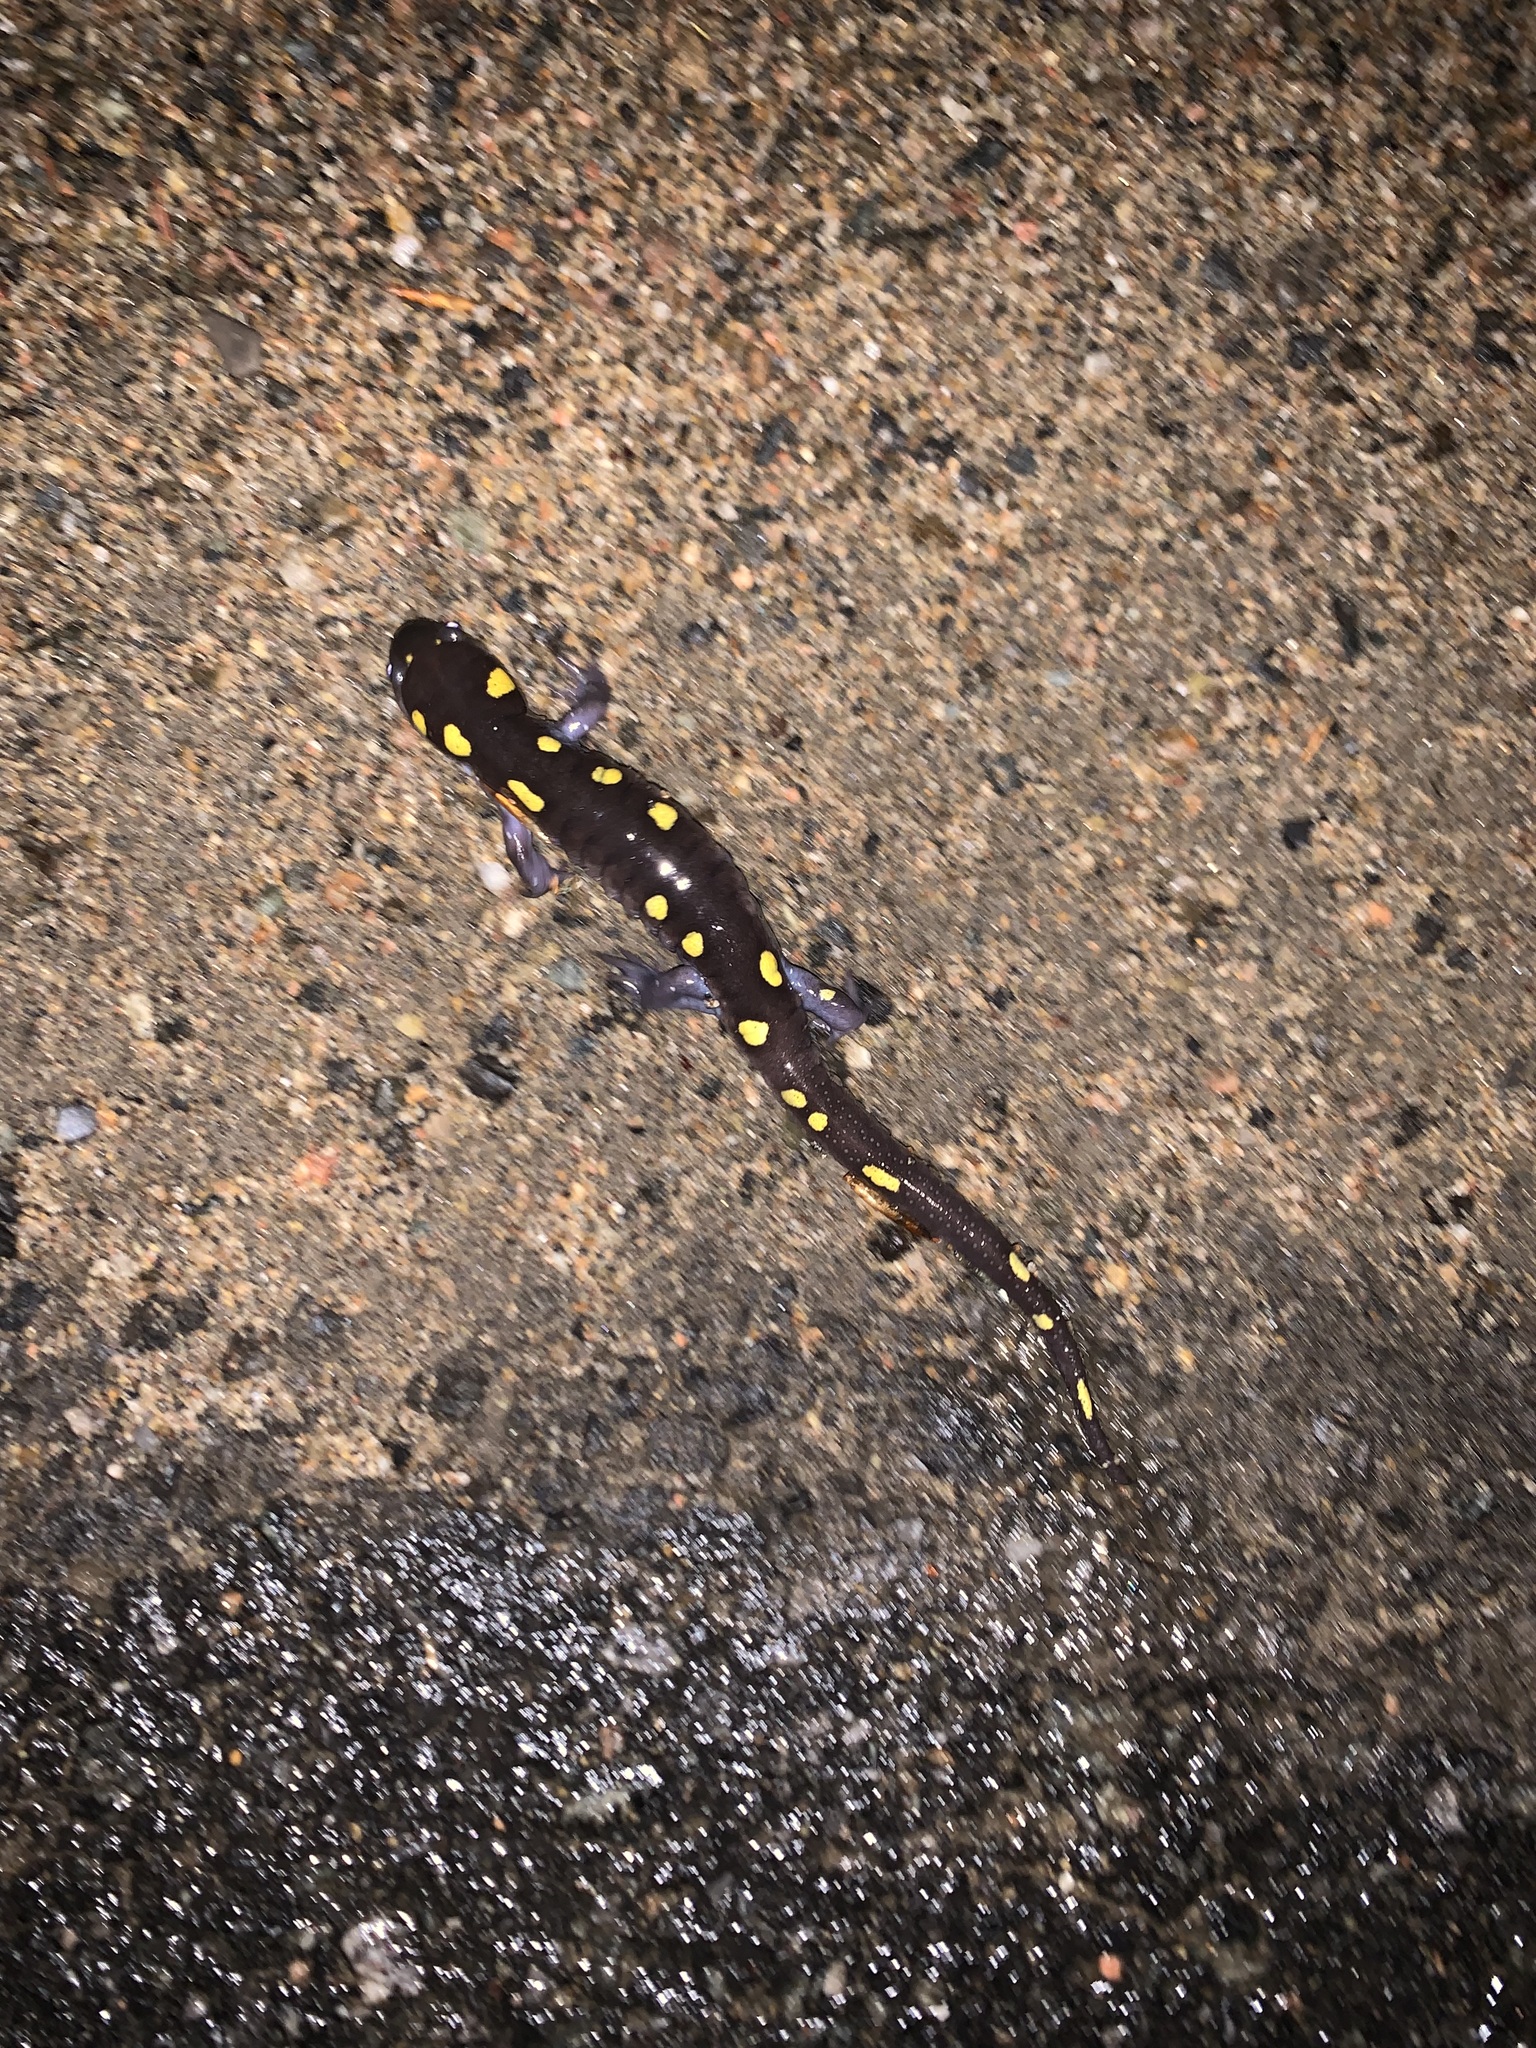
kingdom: Animalia
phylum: Chordata
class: Amphibia
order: Caudata
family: Ambystomatidae
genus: Ambystoma
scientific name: Ambystoma maculatum
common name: Spotted salamander
